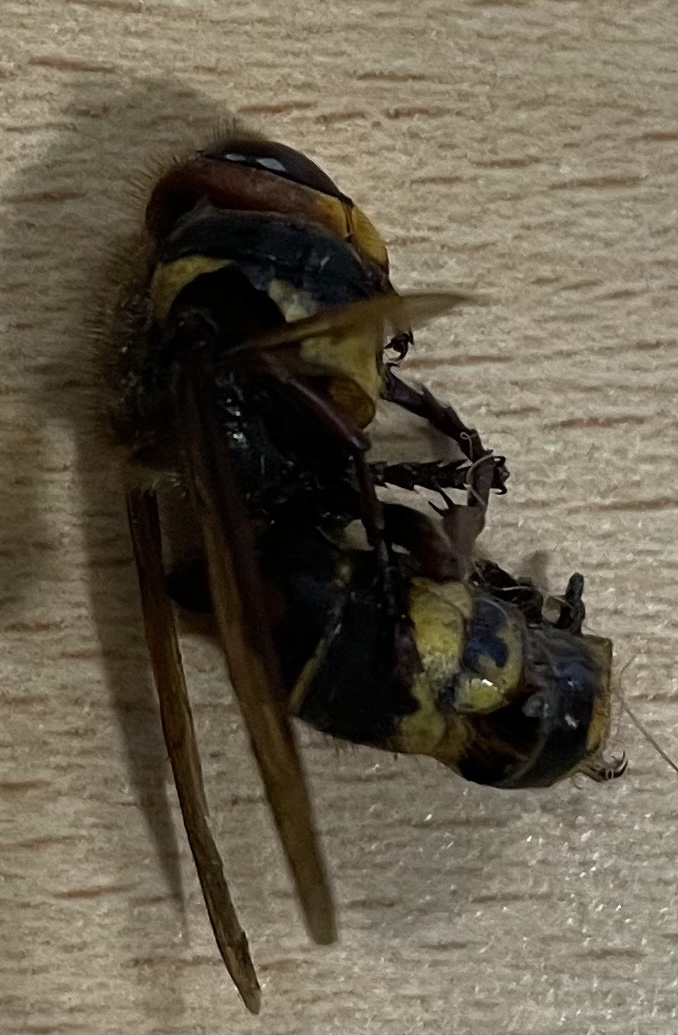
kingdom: Animalia
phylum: Arthropoda
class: Insecta
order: Hymenoptera
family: Vespidae
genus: Vespa
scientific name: Vespa crabro
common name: Hornet
